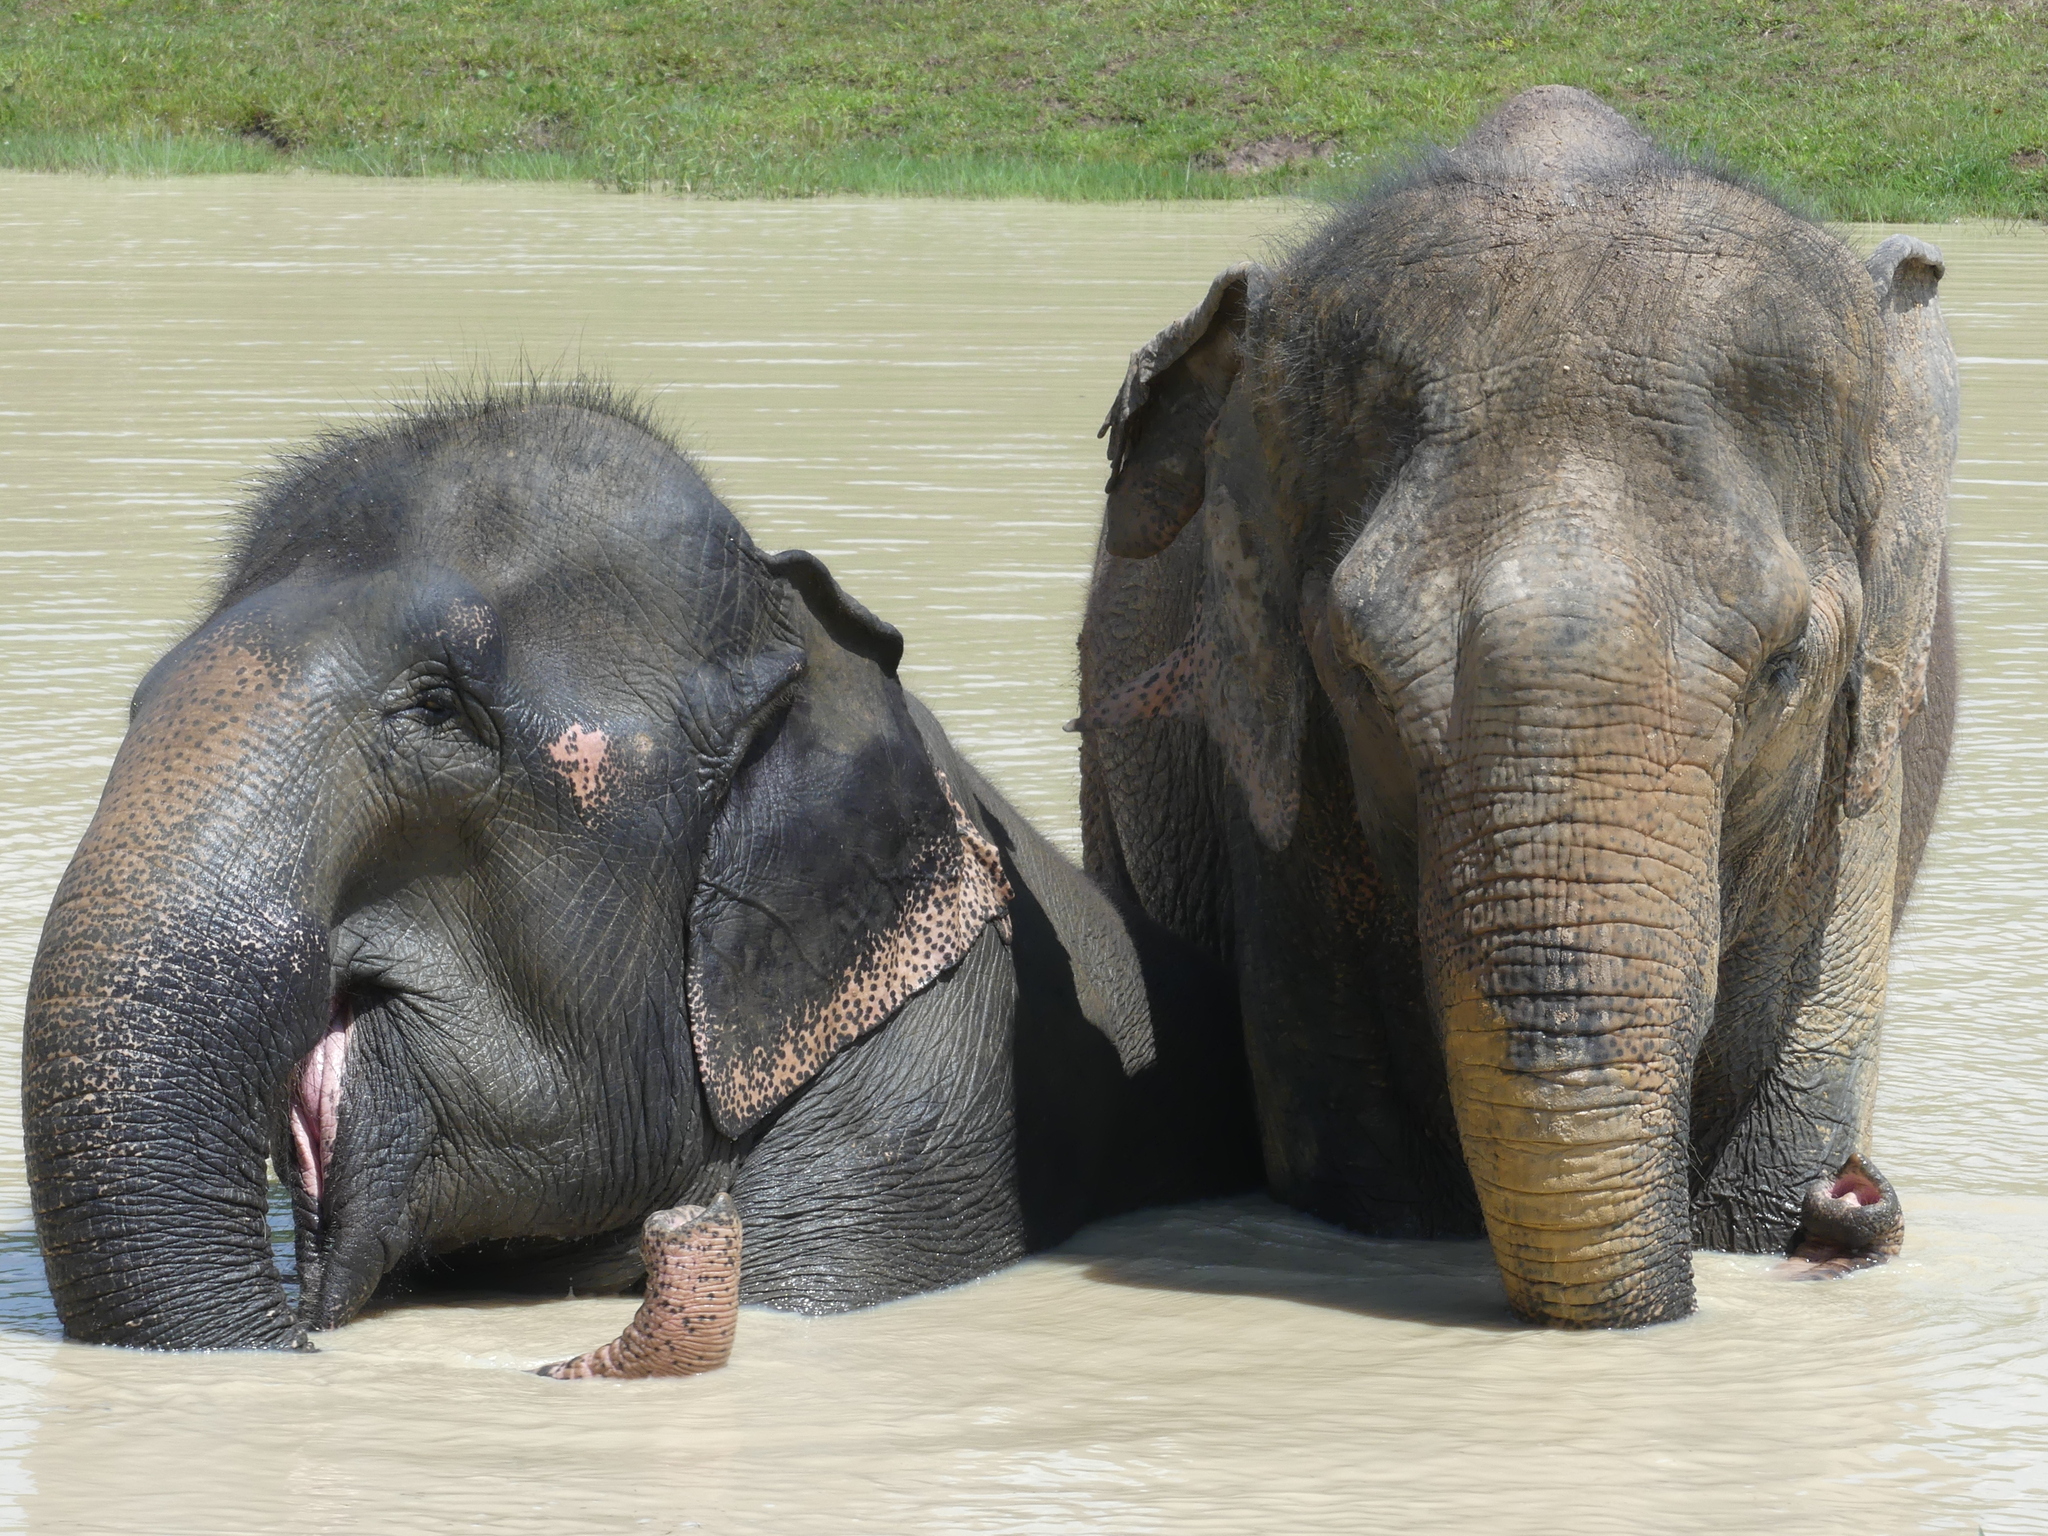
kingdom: Animalia
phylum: Chordata
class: Mammalia
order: Proboscidea
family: Elephantidae
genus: Elephas
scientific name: Elephas maximus
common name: Asian elephant
